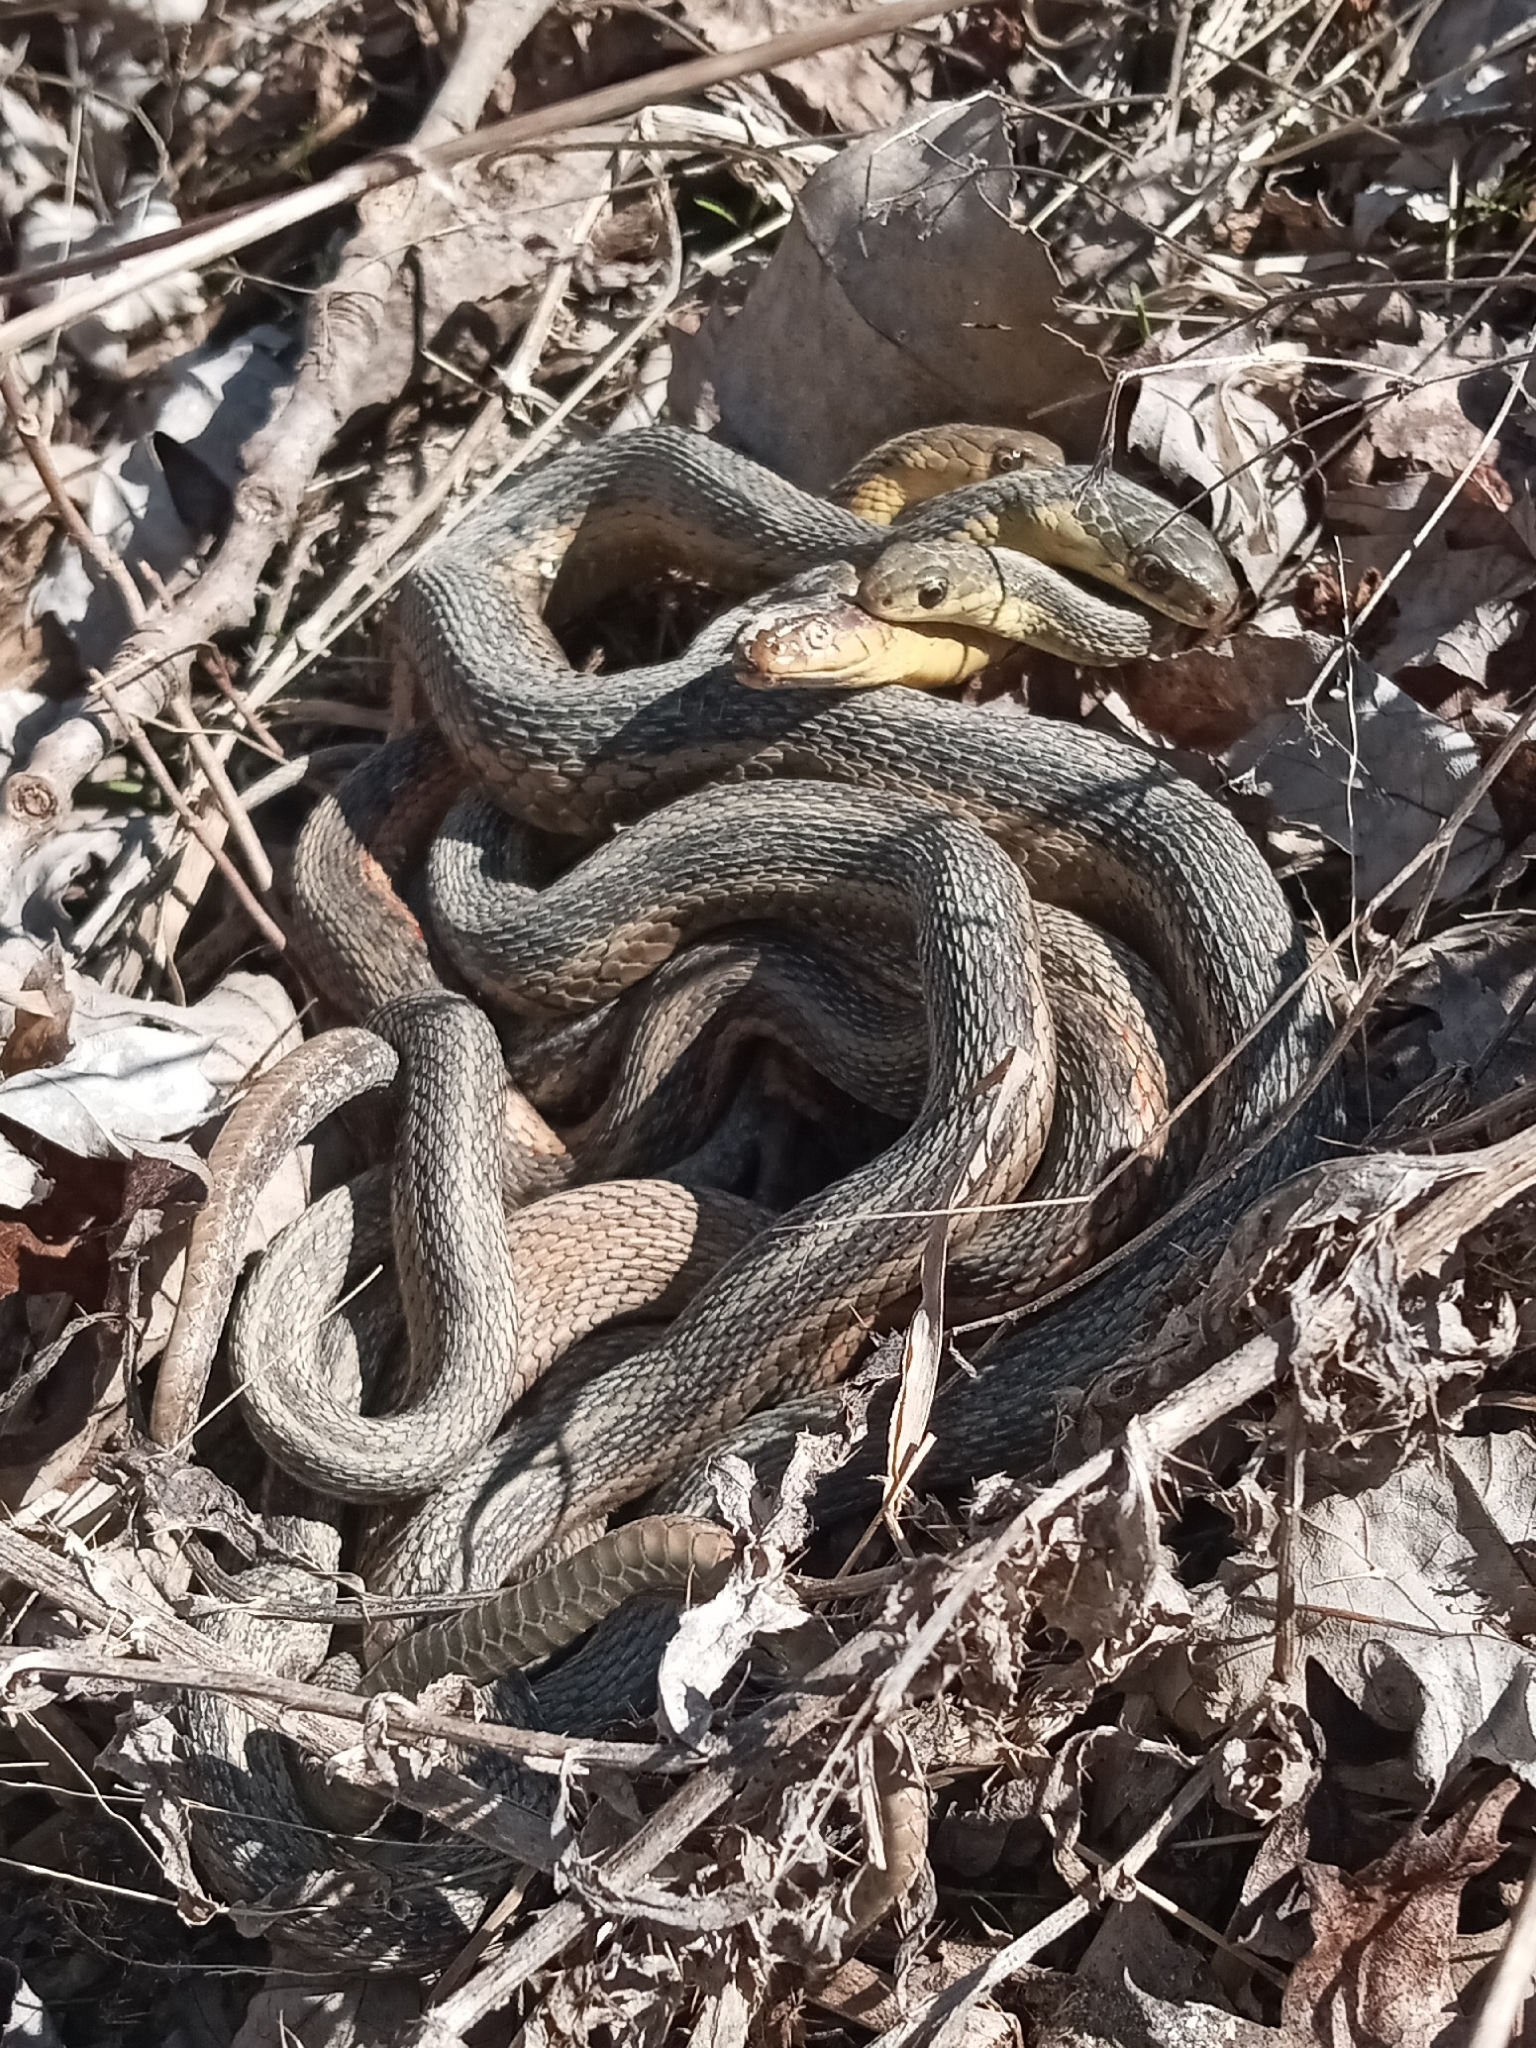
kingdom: Animalia
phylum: Chordata
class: Squamata
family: Colubridae
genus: Thamnophis
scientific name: Thamnophis sirtalis
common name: Common garter snake
